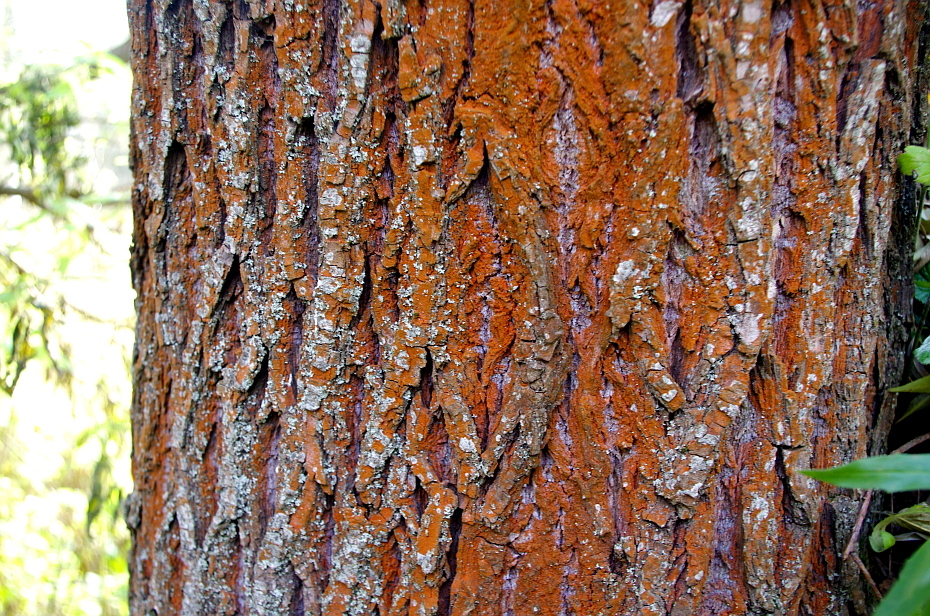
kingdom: Plantae
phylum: Chlorophyta
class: Ulvophyceae
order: Trentepohliales
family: Trentepohliaceae
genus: Trentepohlia
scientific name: Trentepohlia
